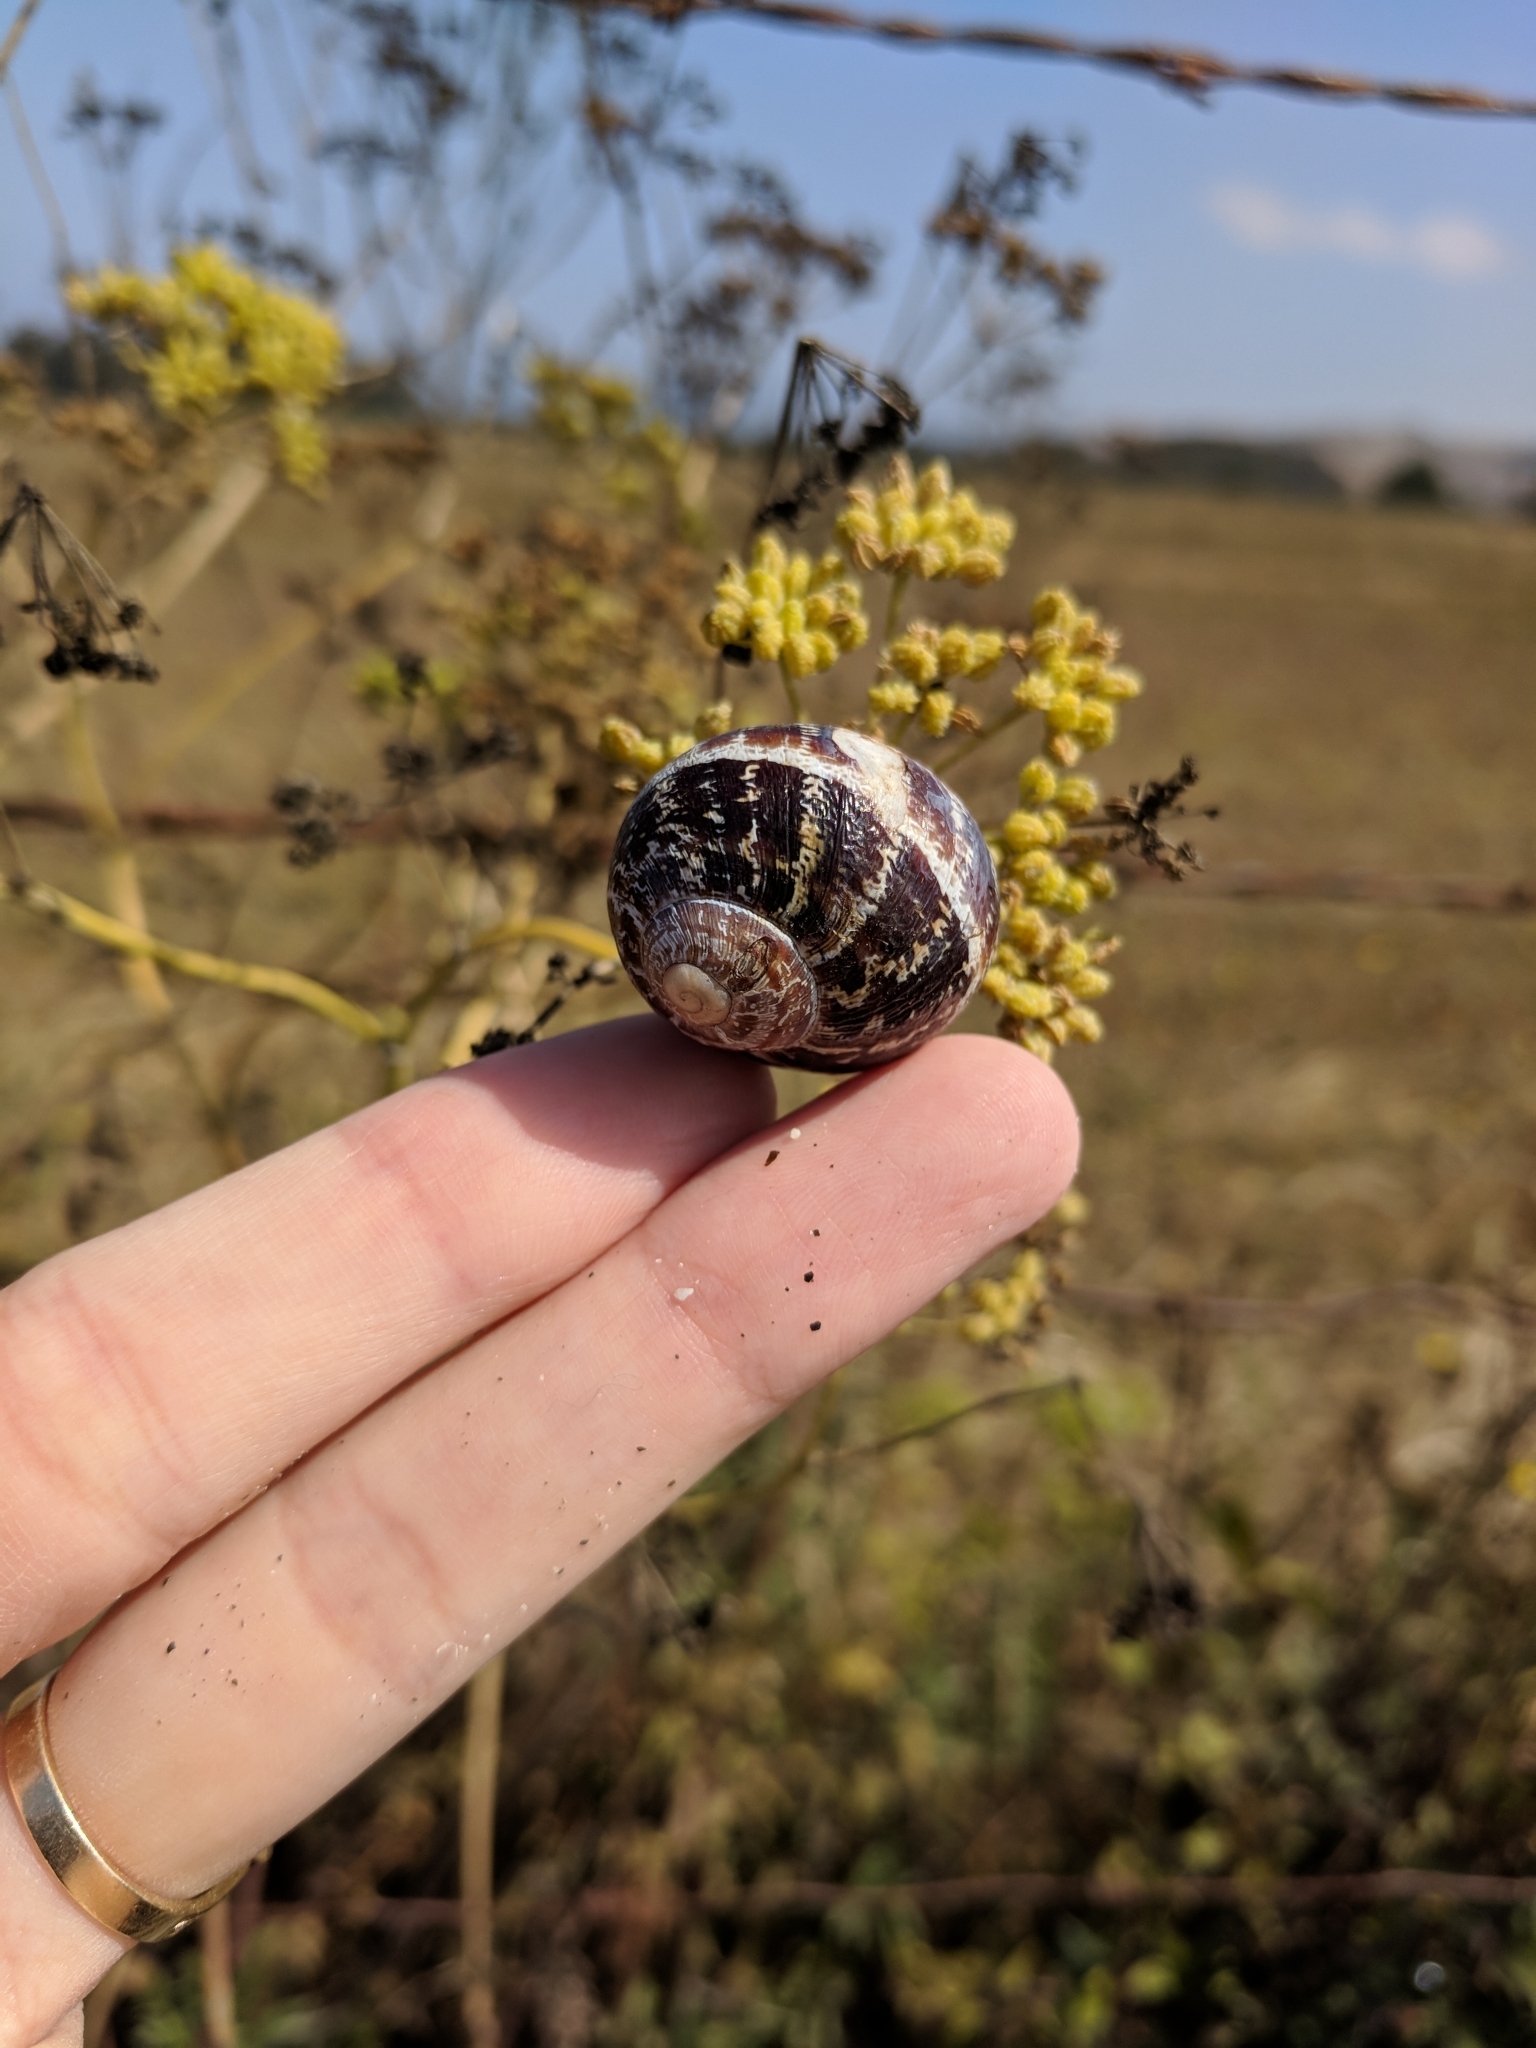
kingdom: Animalia
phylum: Mollusca
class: Gastropoda
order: Stylommatophora
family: Helicidae
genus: Cornu
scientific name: Cornu aspersum
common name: Brown garden snail
